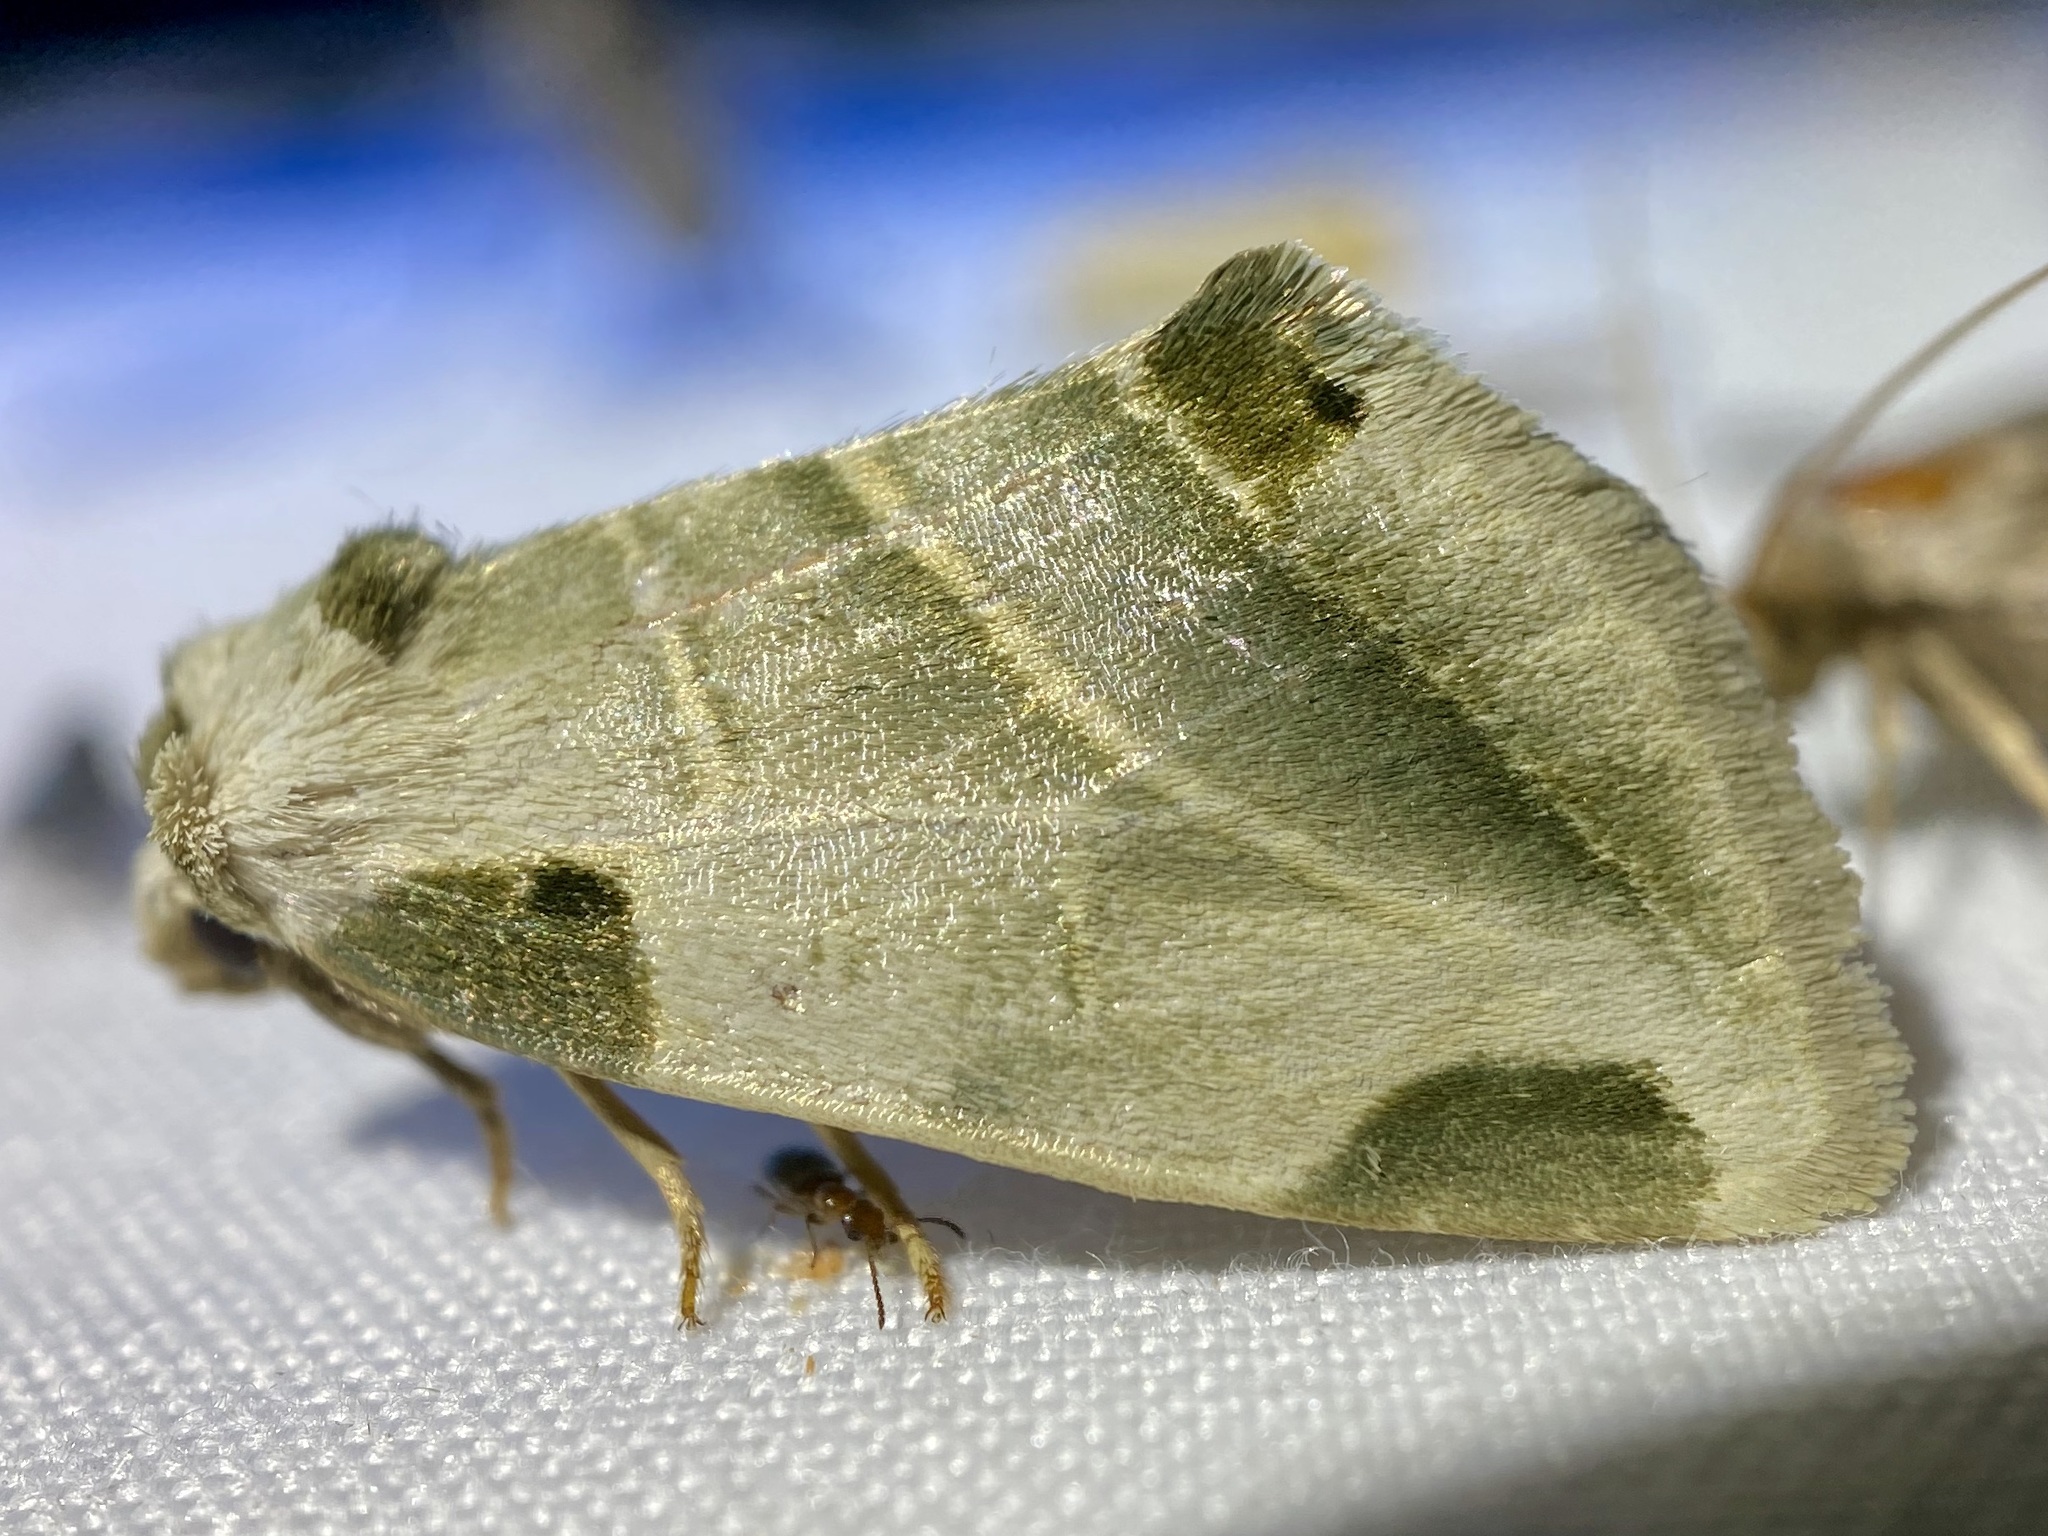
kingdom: Animalia
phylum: Arthropoda
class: Insecta
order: Lepidoptera
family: Noctuidae
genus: Heminocloa
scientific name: Heminocloa mirabilis
